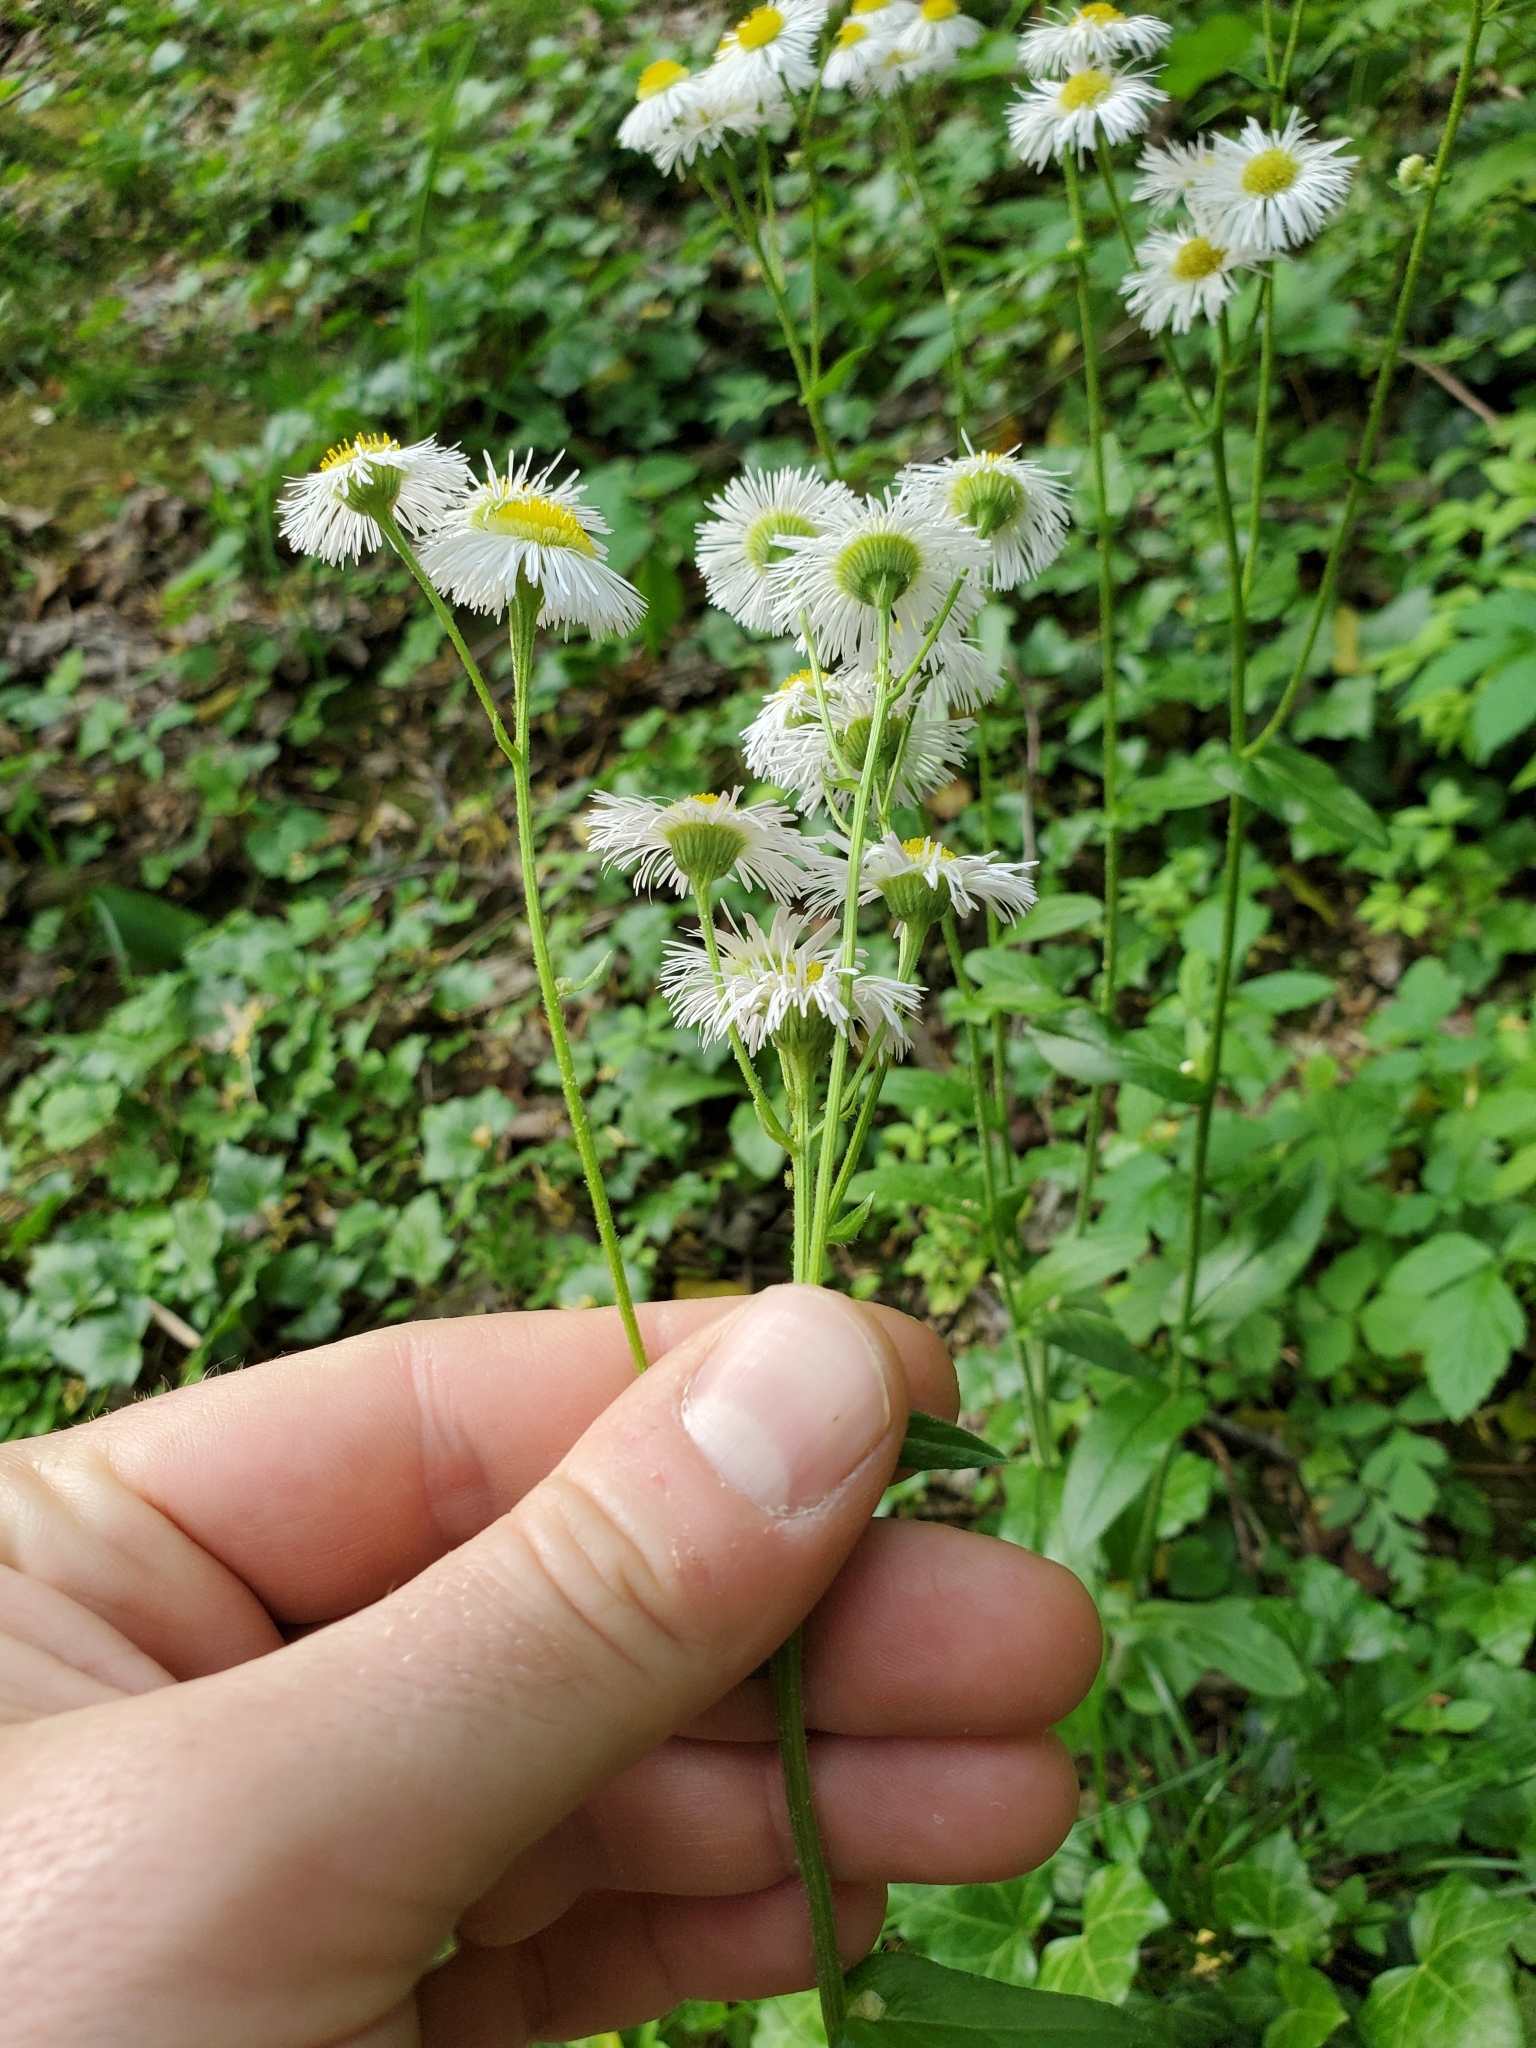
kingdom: Plantae
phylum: Tracheophyta
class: Magnoliopsida
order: Asterales
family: Asteraceae
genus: Erigeron
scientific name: Erigeron philadelphicus
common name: Robin's-plantain
